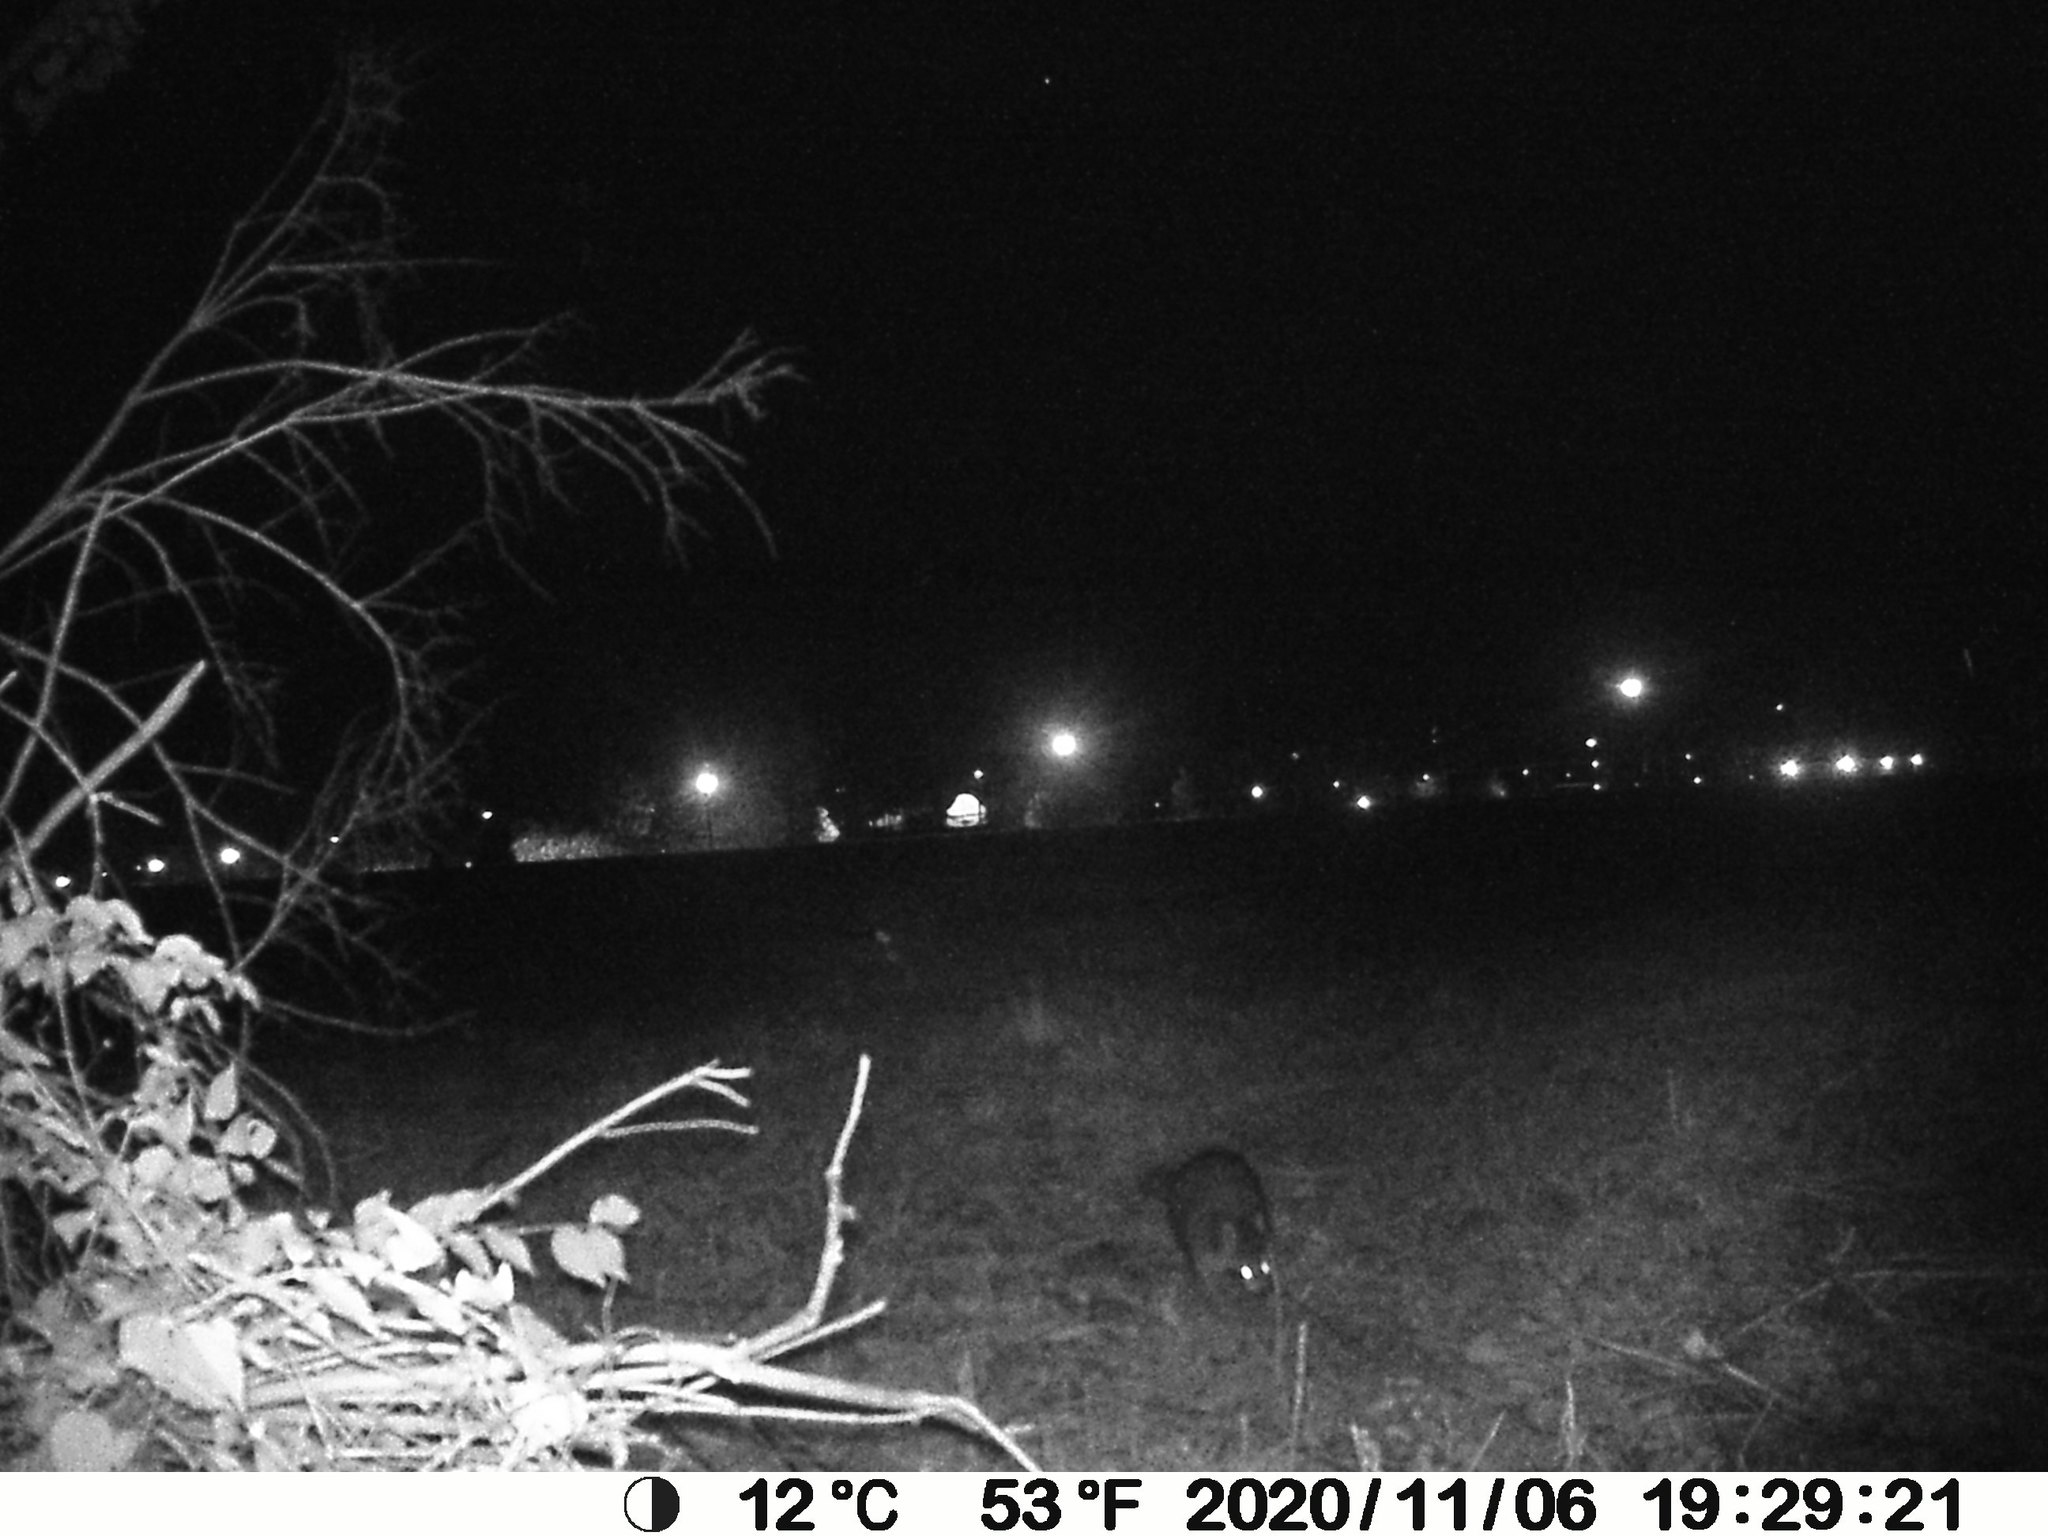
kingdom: Animalia
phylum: Chordata
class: Mammalia
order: Carnivora
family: Procyonidae
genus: Procyon
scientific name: Procyon lotor
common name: Raccoon
